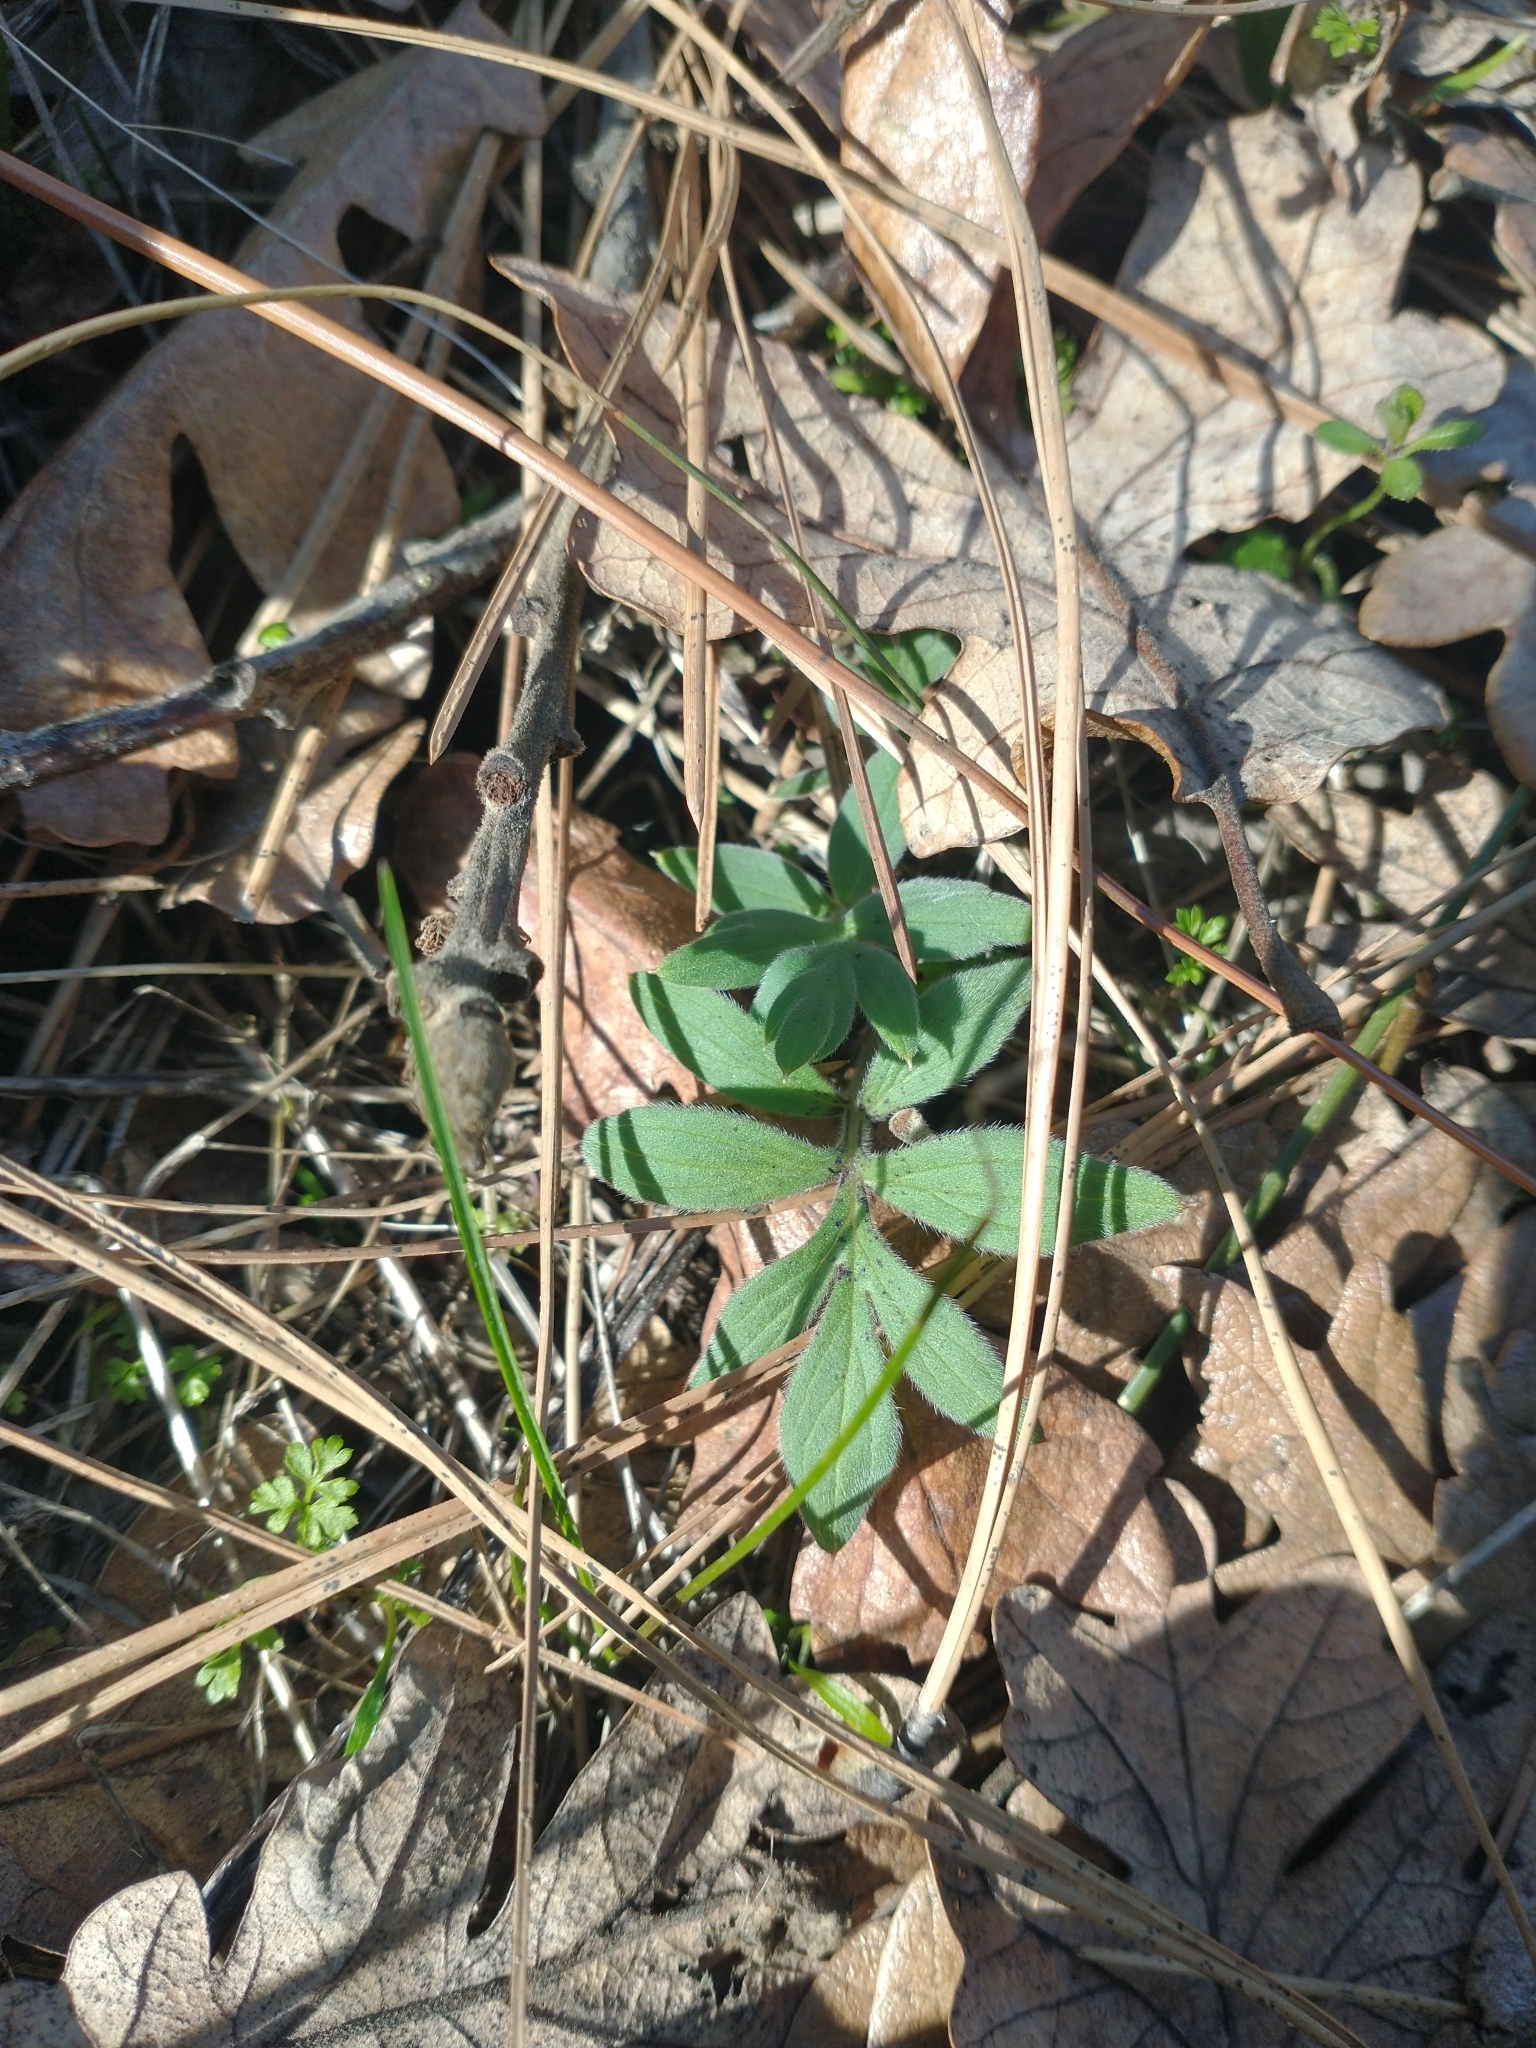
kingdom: Plantae
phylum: Tracheophyta
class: Magnoliopsida
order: Boraginales
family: Hydrophyllaceae
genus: Hydrophyllum
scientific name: Hydrophyllum capitatum
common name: Woollen-breeches
